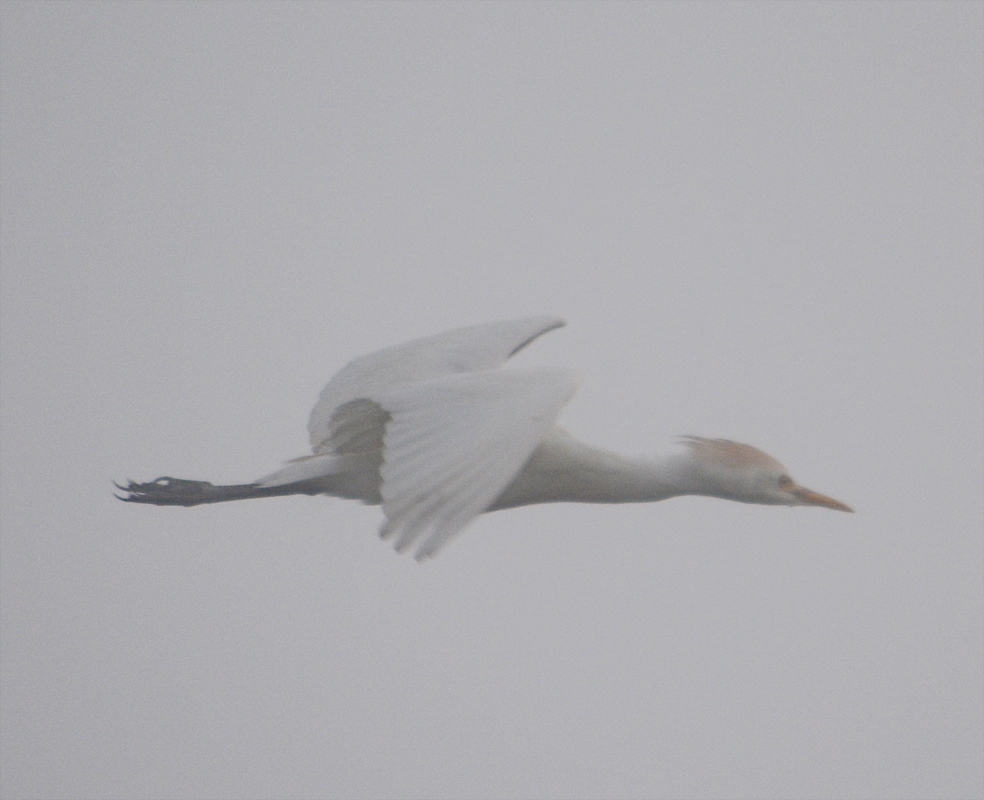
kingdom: Animalia
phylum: Chordata
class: Aves
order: Pelecaniformes
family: Ardeidae
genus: Bubulcus
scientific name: Bubulcus ibis
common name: Cattle egret
